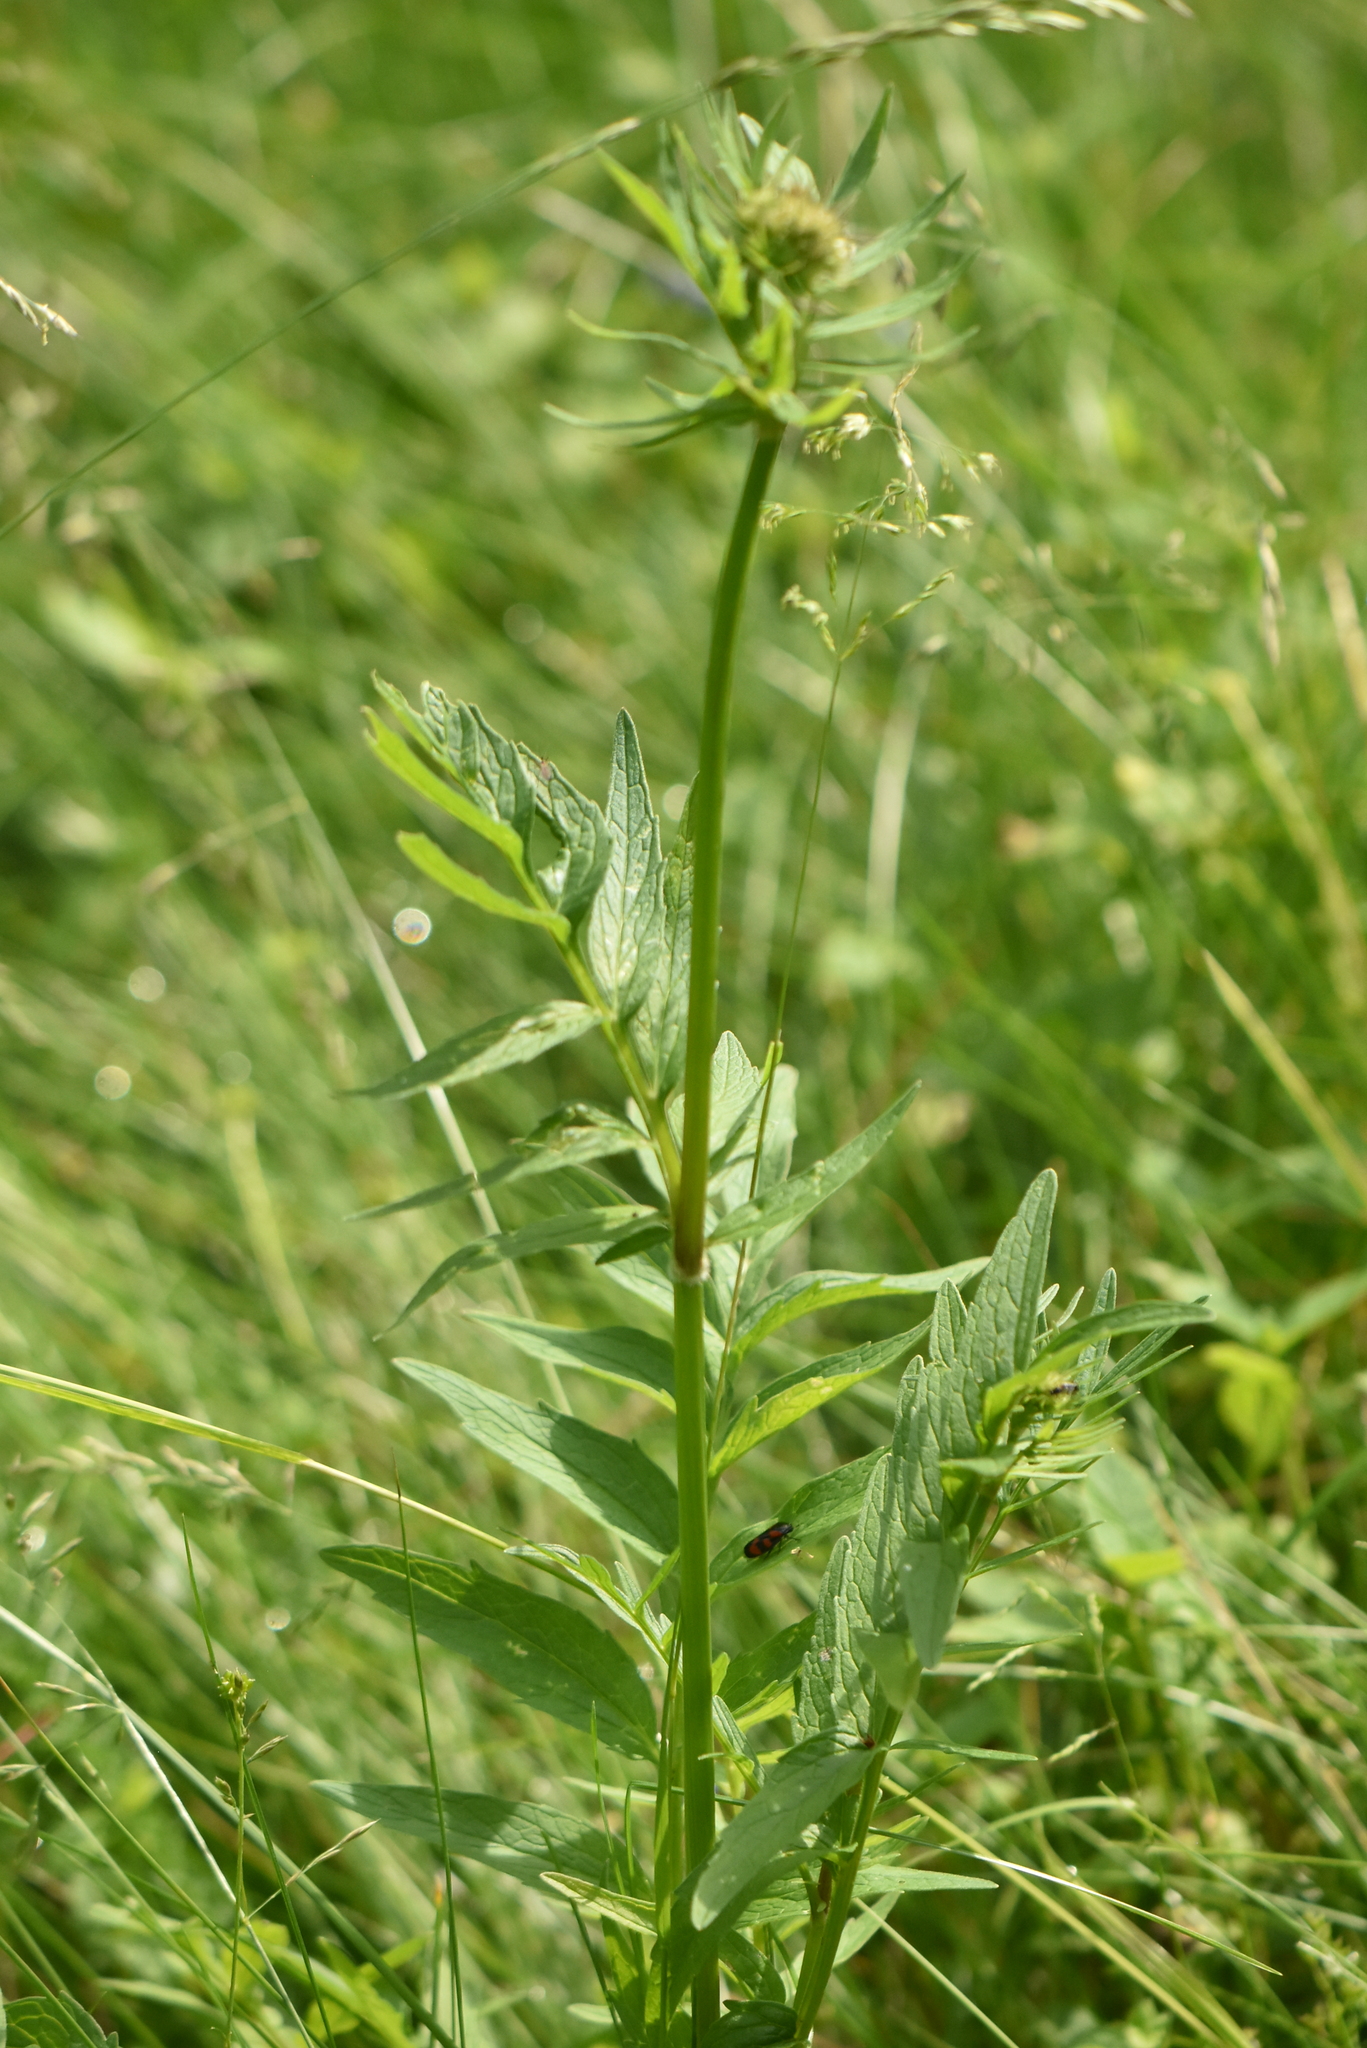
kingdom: Plantae
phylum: Tracheophyta
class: Magnoliopsida
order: Dipsacales
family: Caprifoliaceae
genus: Valeriana
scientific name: Valeriana officinalis
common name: Common valerian
